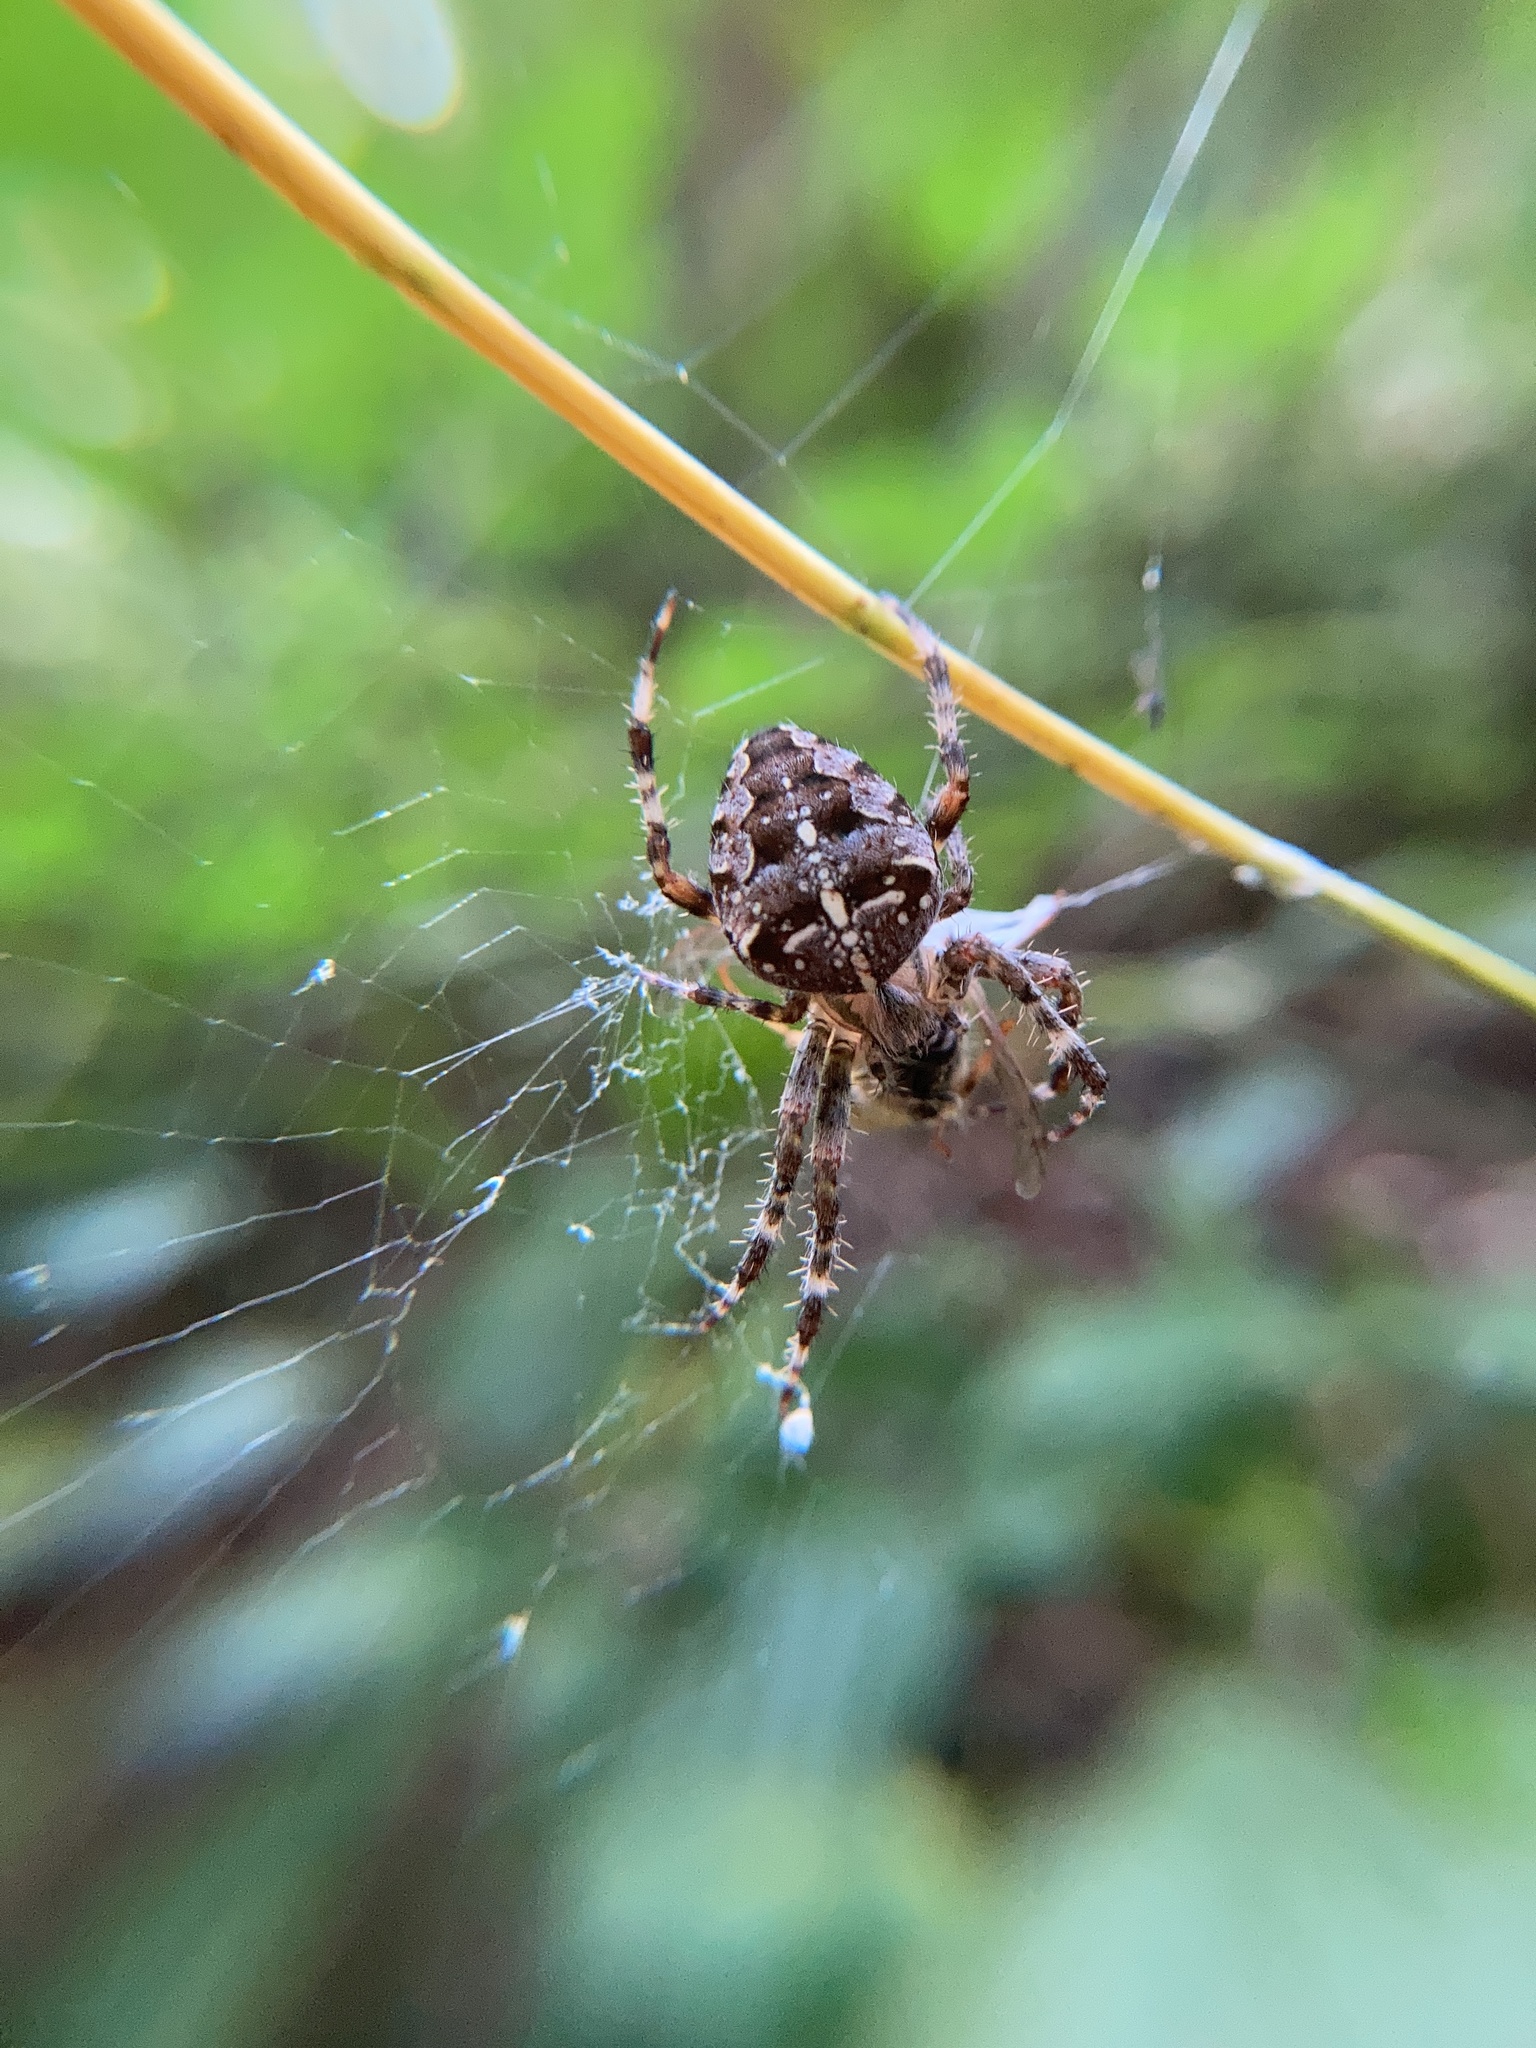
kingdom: Animalia
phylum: Arthropoda
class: Arachnida
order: Araneae
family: Araneidae
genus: Araneus
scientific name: Araneus diadematus
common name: Cross orbweaver
